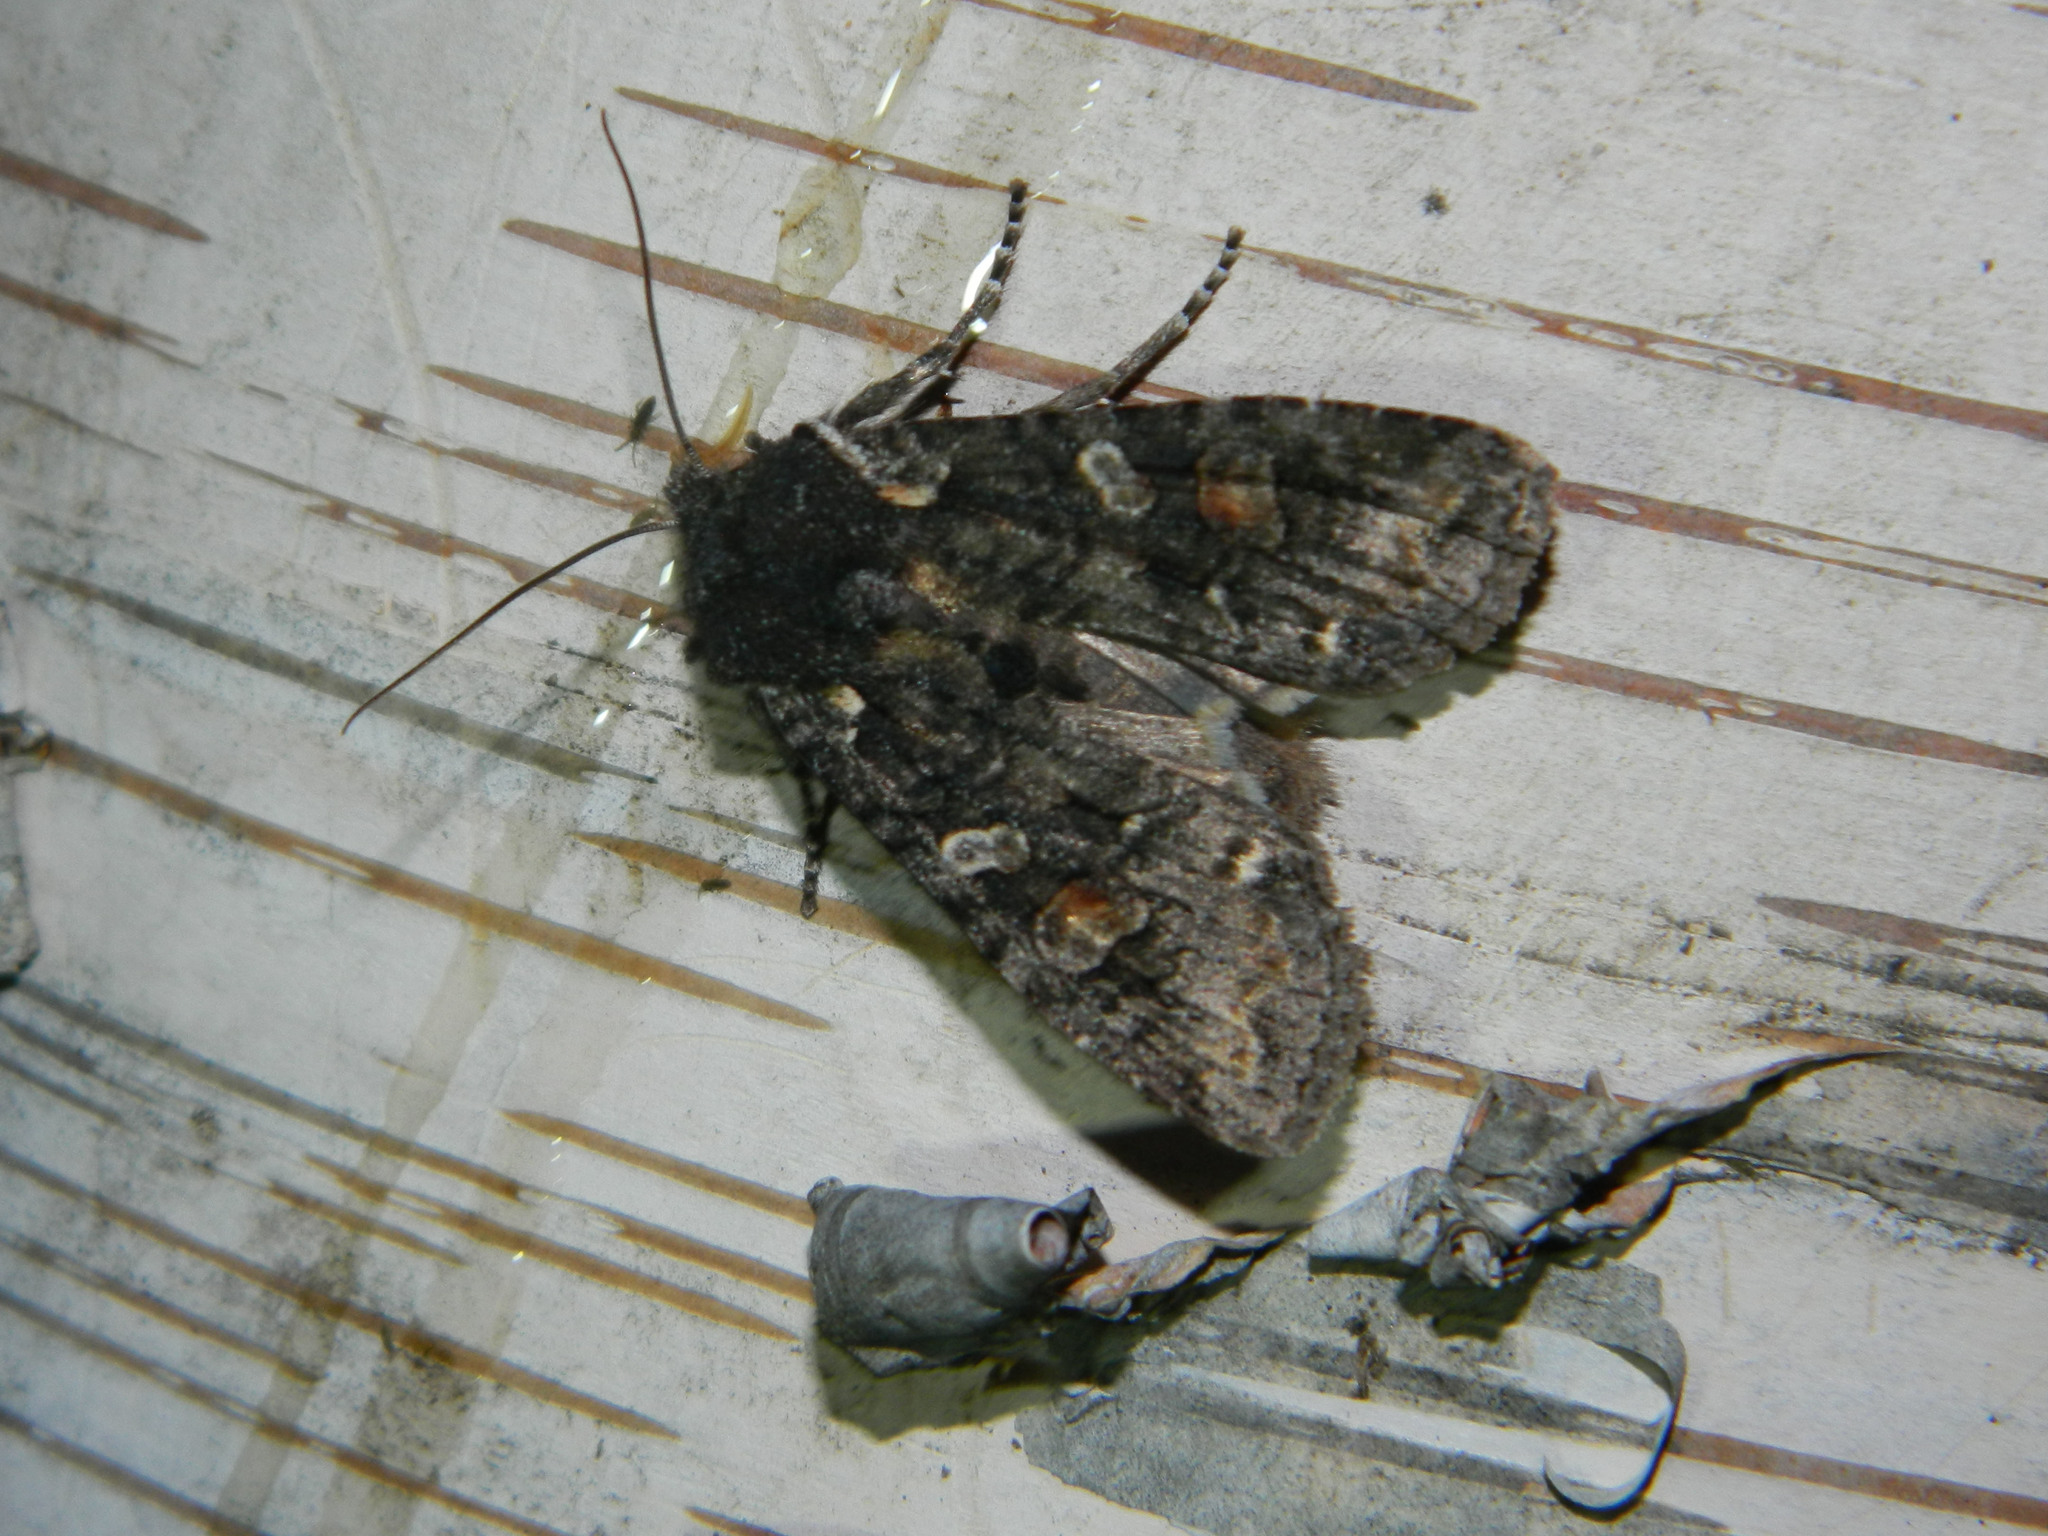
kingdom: Animalia
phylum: Arthropoda
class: Insecta
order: Lepidoptera
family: Noctuidae
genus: Lithophane
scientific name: Lithophane pexata
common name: Plush-naped pinion moth
